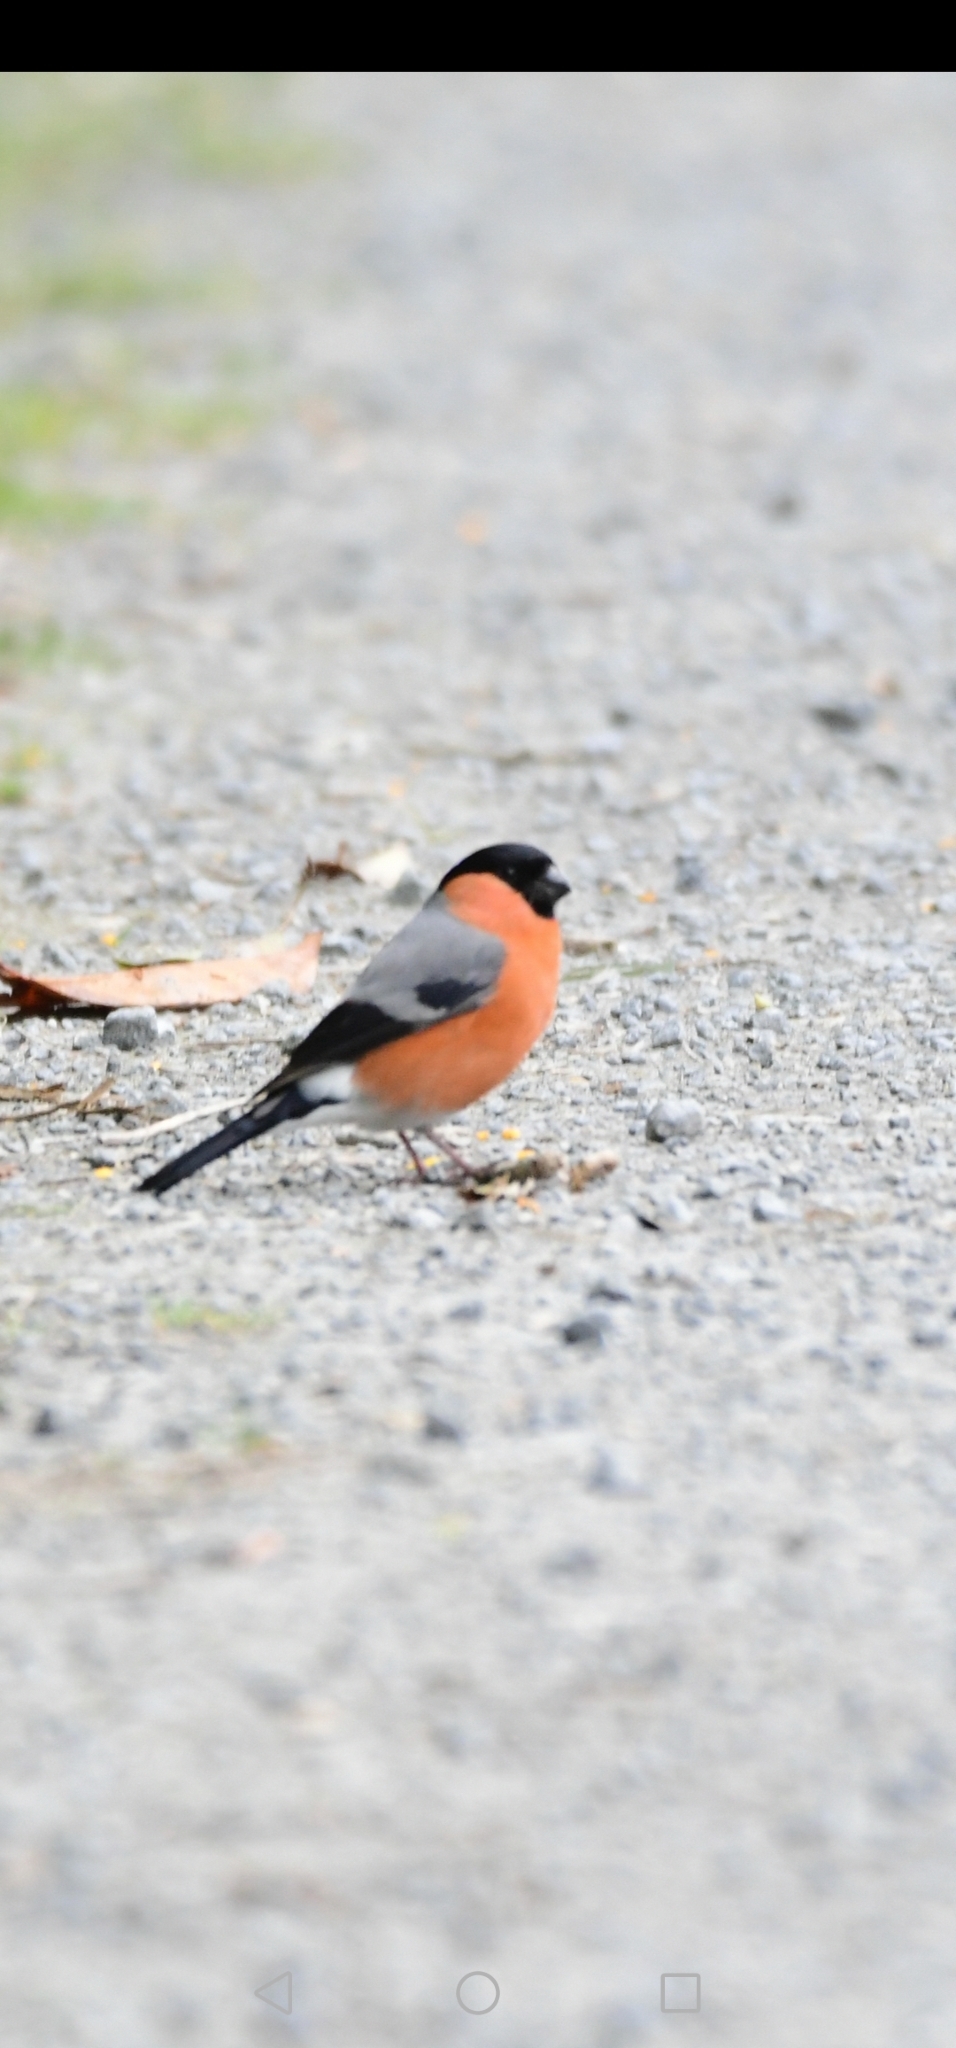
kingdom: Animalia
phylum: Chordata
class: Aves
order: Passeriformes
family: Fringillidae
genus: Pyrrhula
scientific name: Pyrrhula pyrrhula
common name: Eurasian bullfinch
